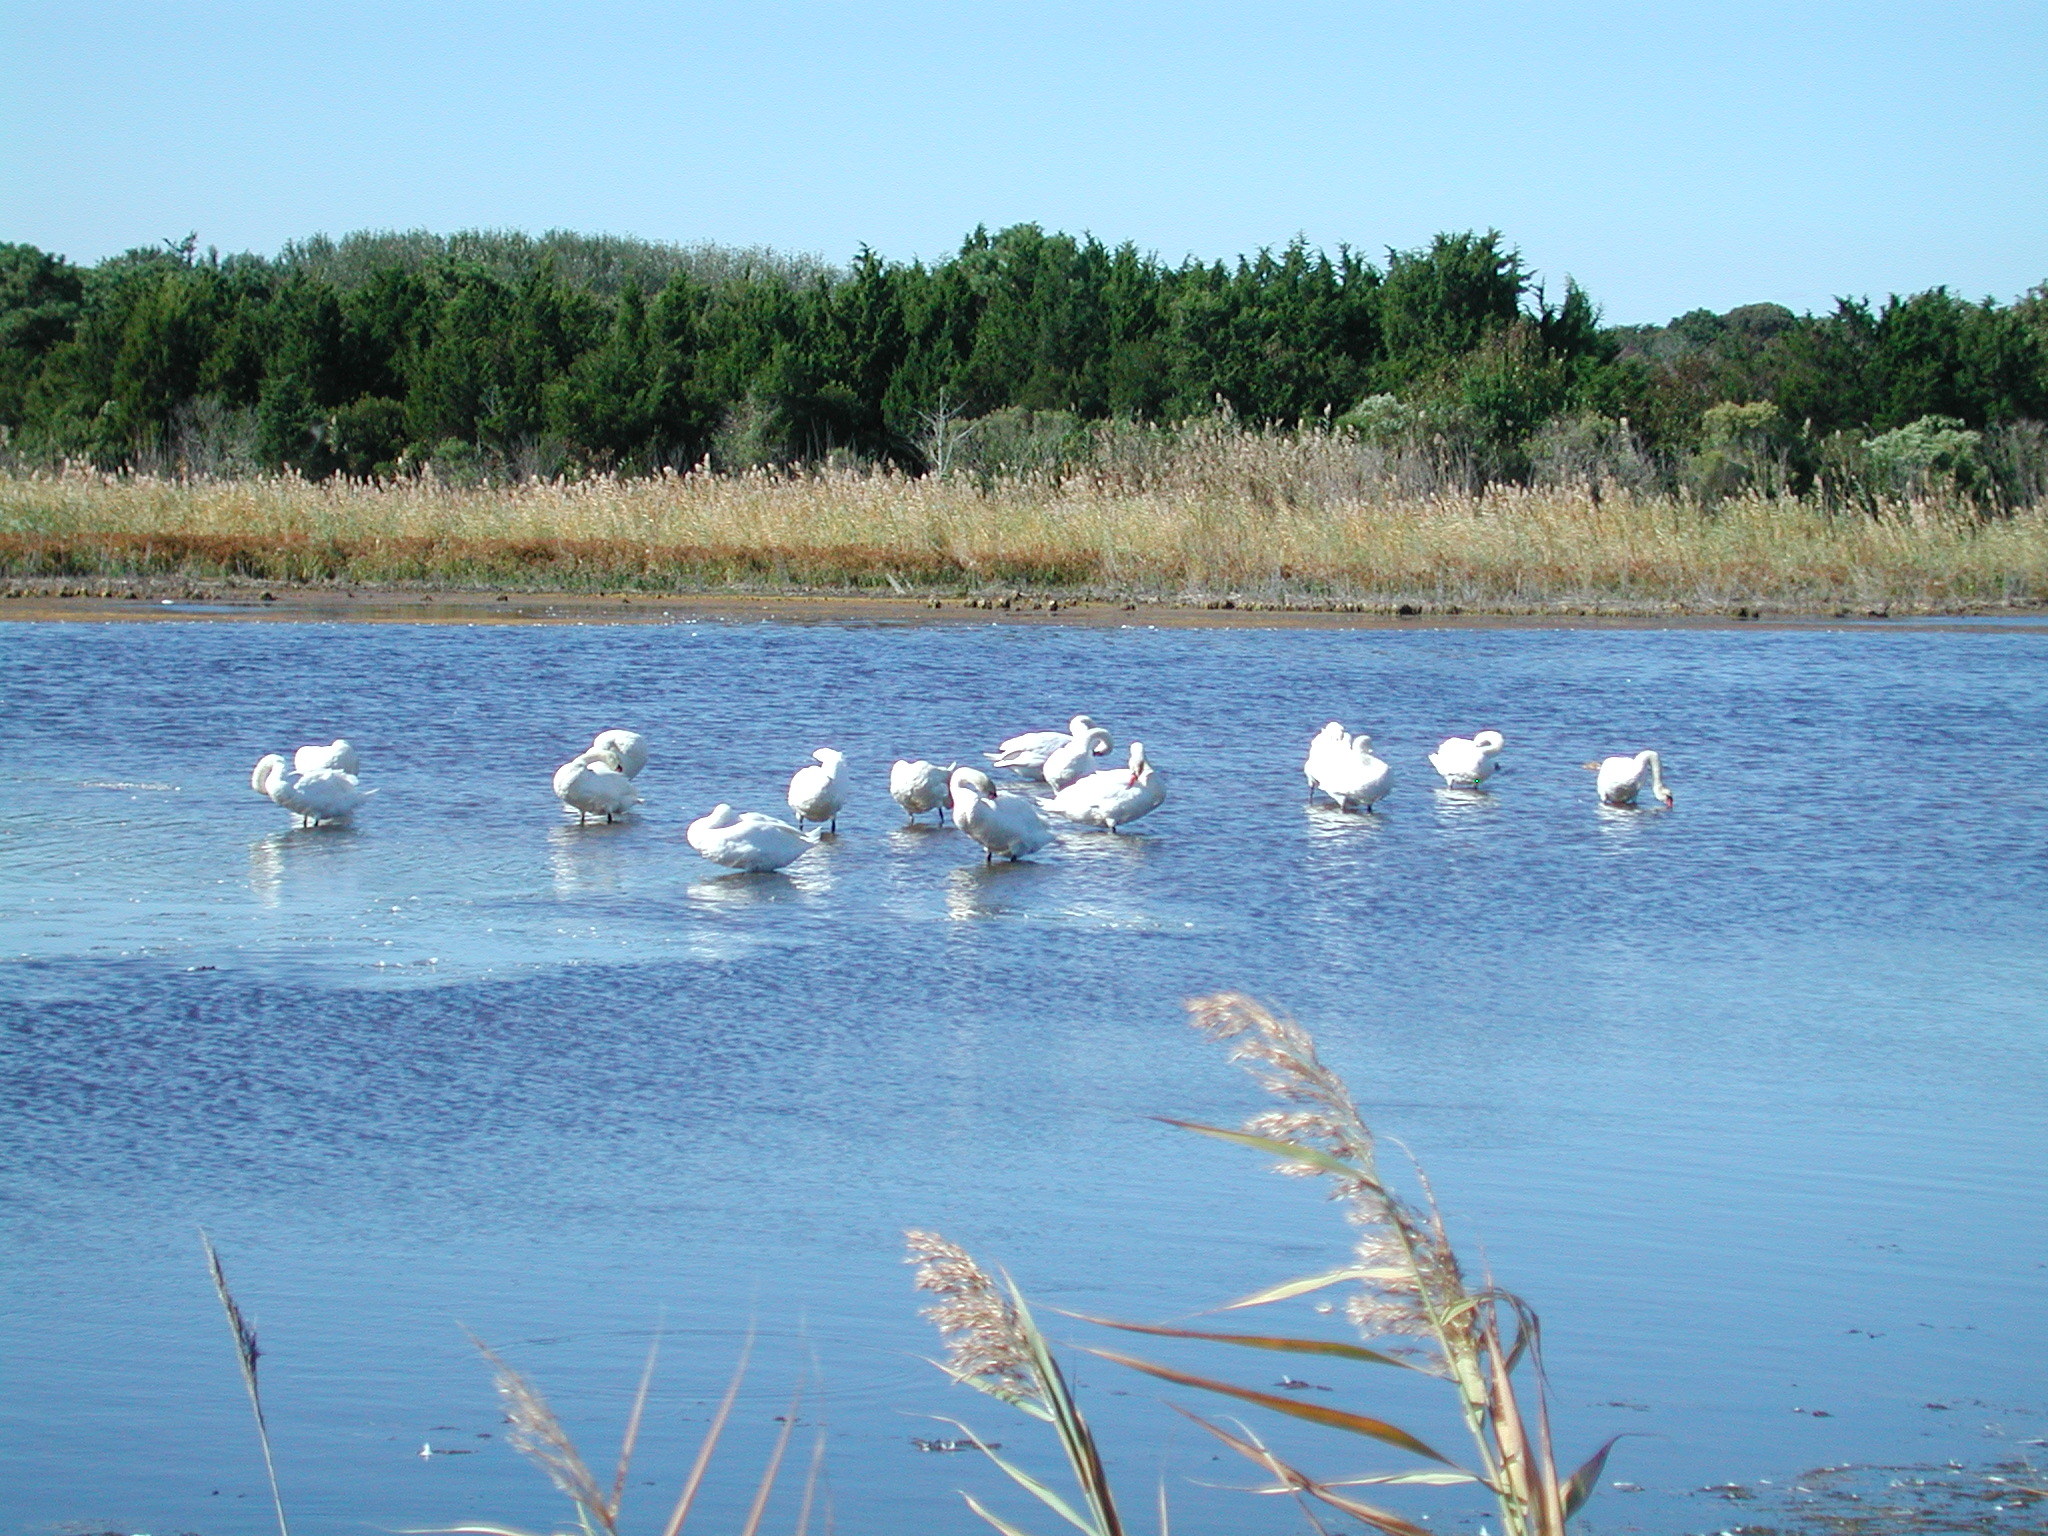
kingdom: Animalia
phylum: Chordata
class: Aves
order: Anseriformes
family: Anatidae
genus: Cygnus
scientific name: Cygnus olor
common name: Mute swan
